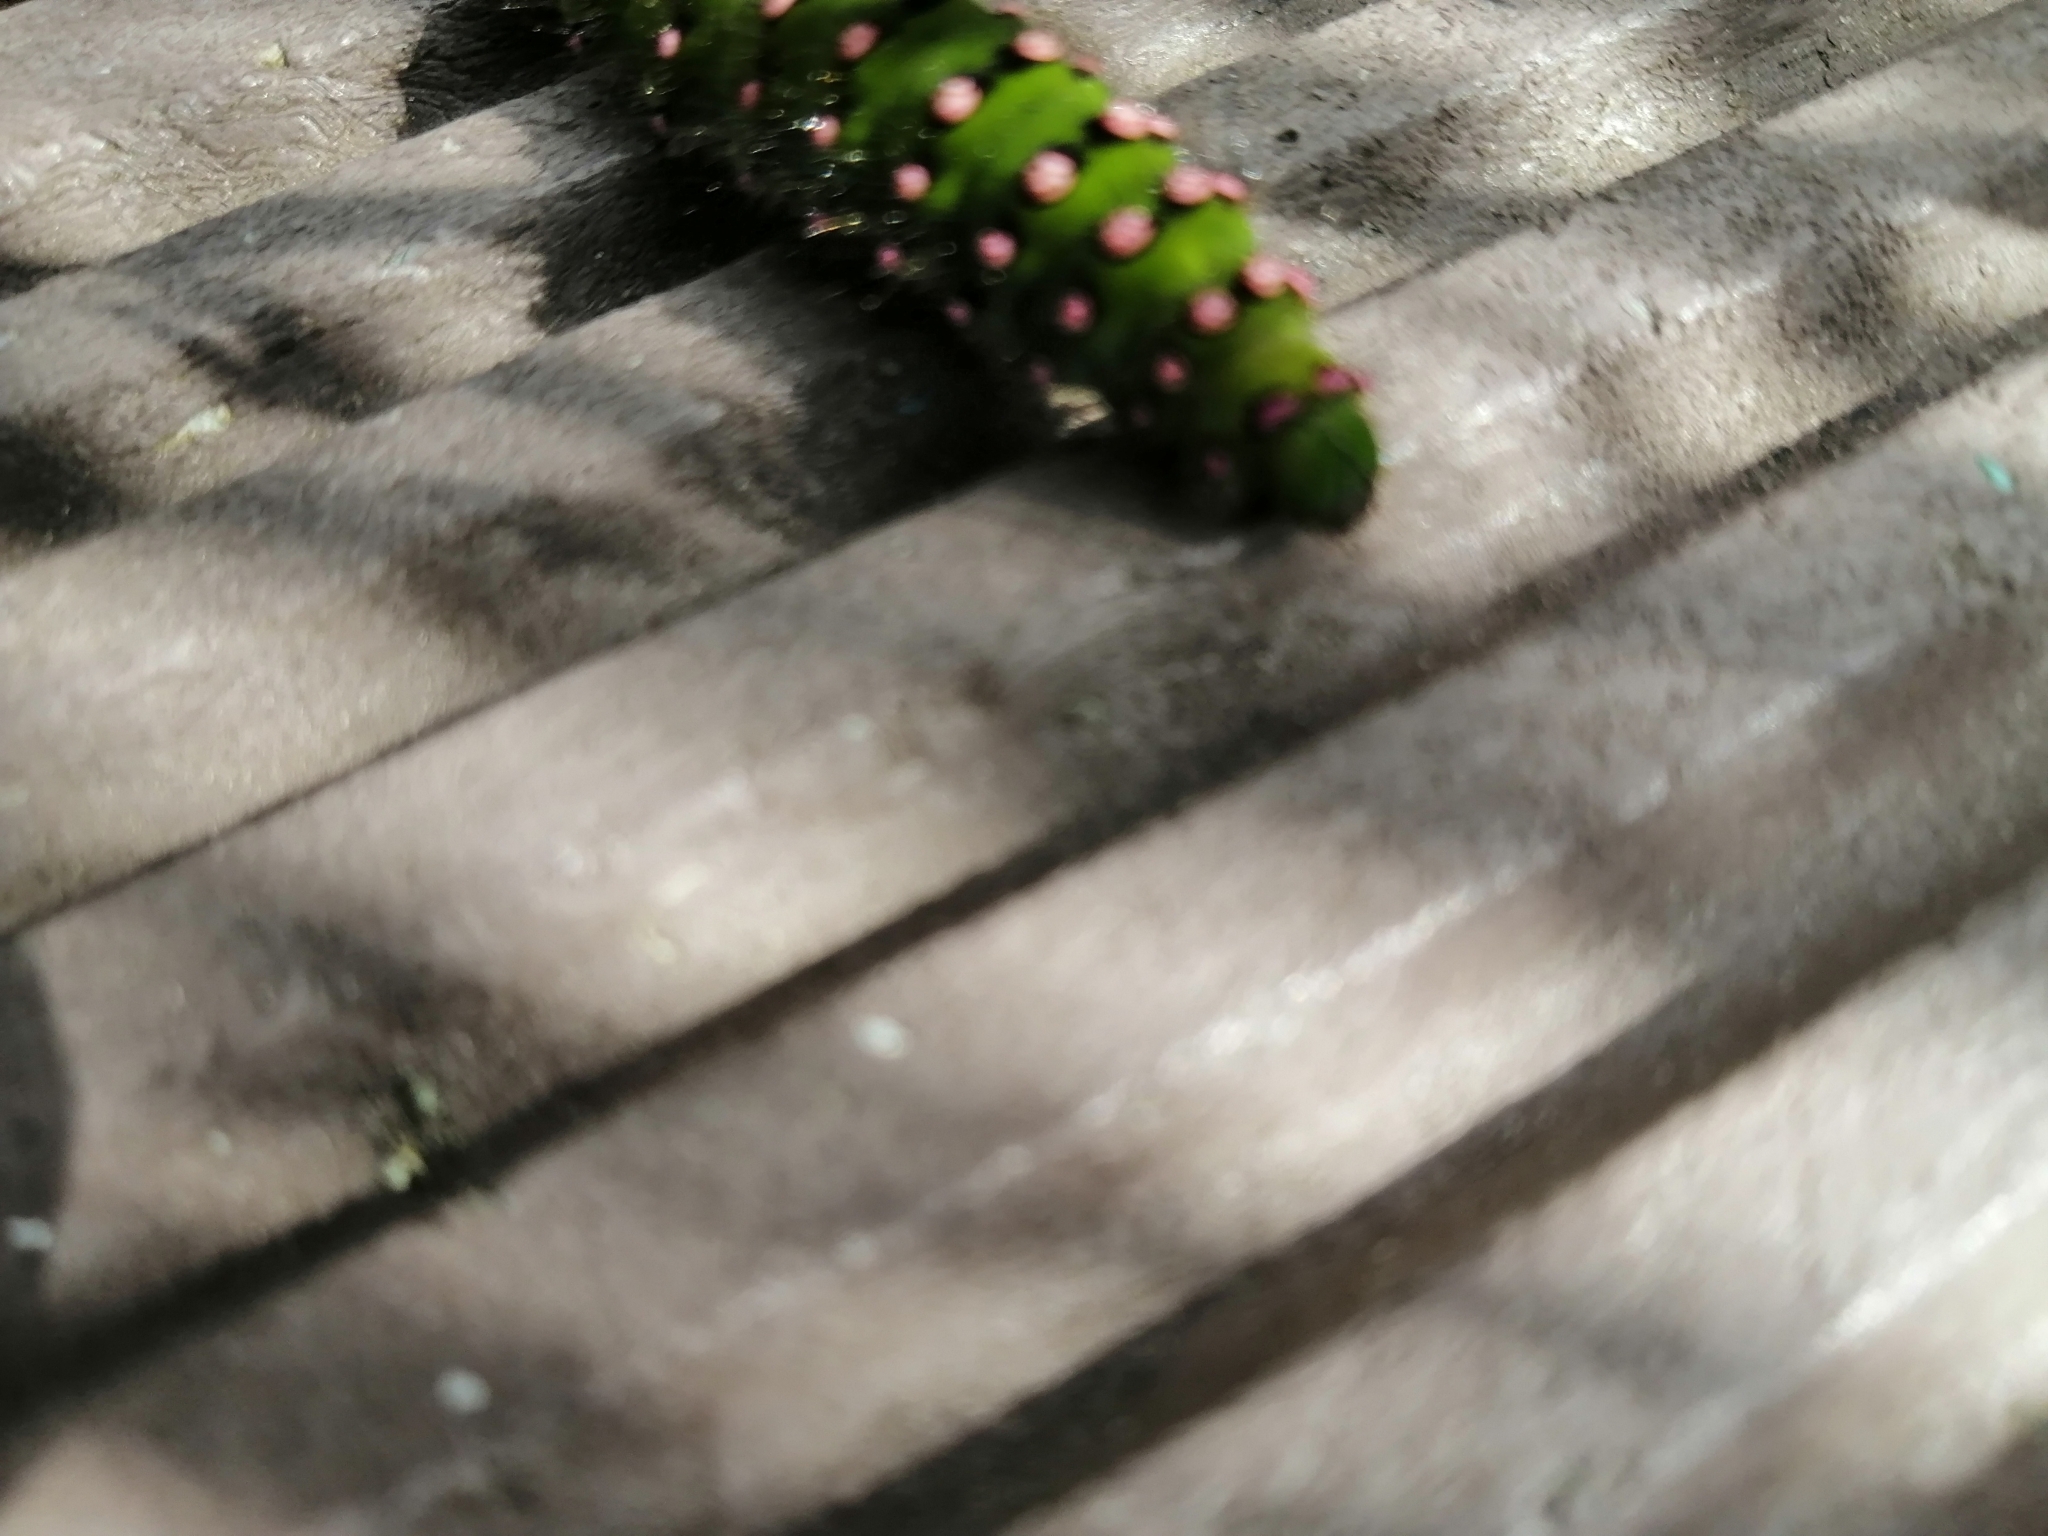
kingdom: Animalia
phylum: Arthropoda
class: Insecta
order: Lepidoptera
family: Saturniidae
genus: Saturnia
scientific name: Saturnia pavonia
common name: Emperor moth
